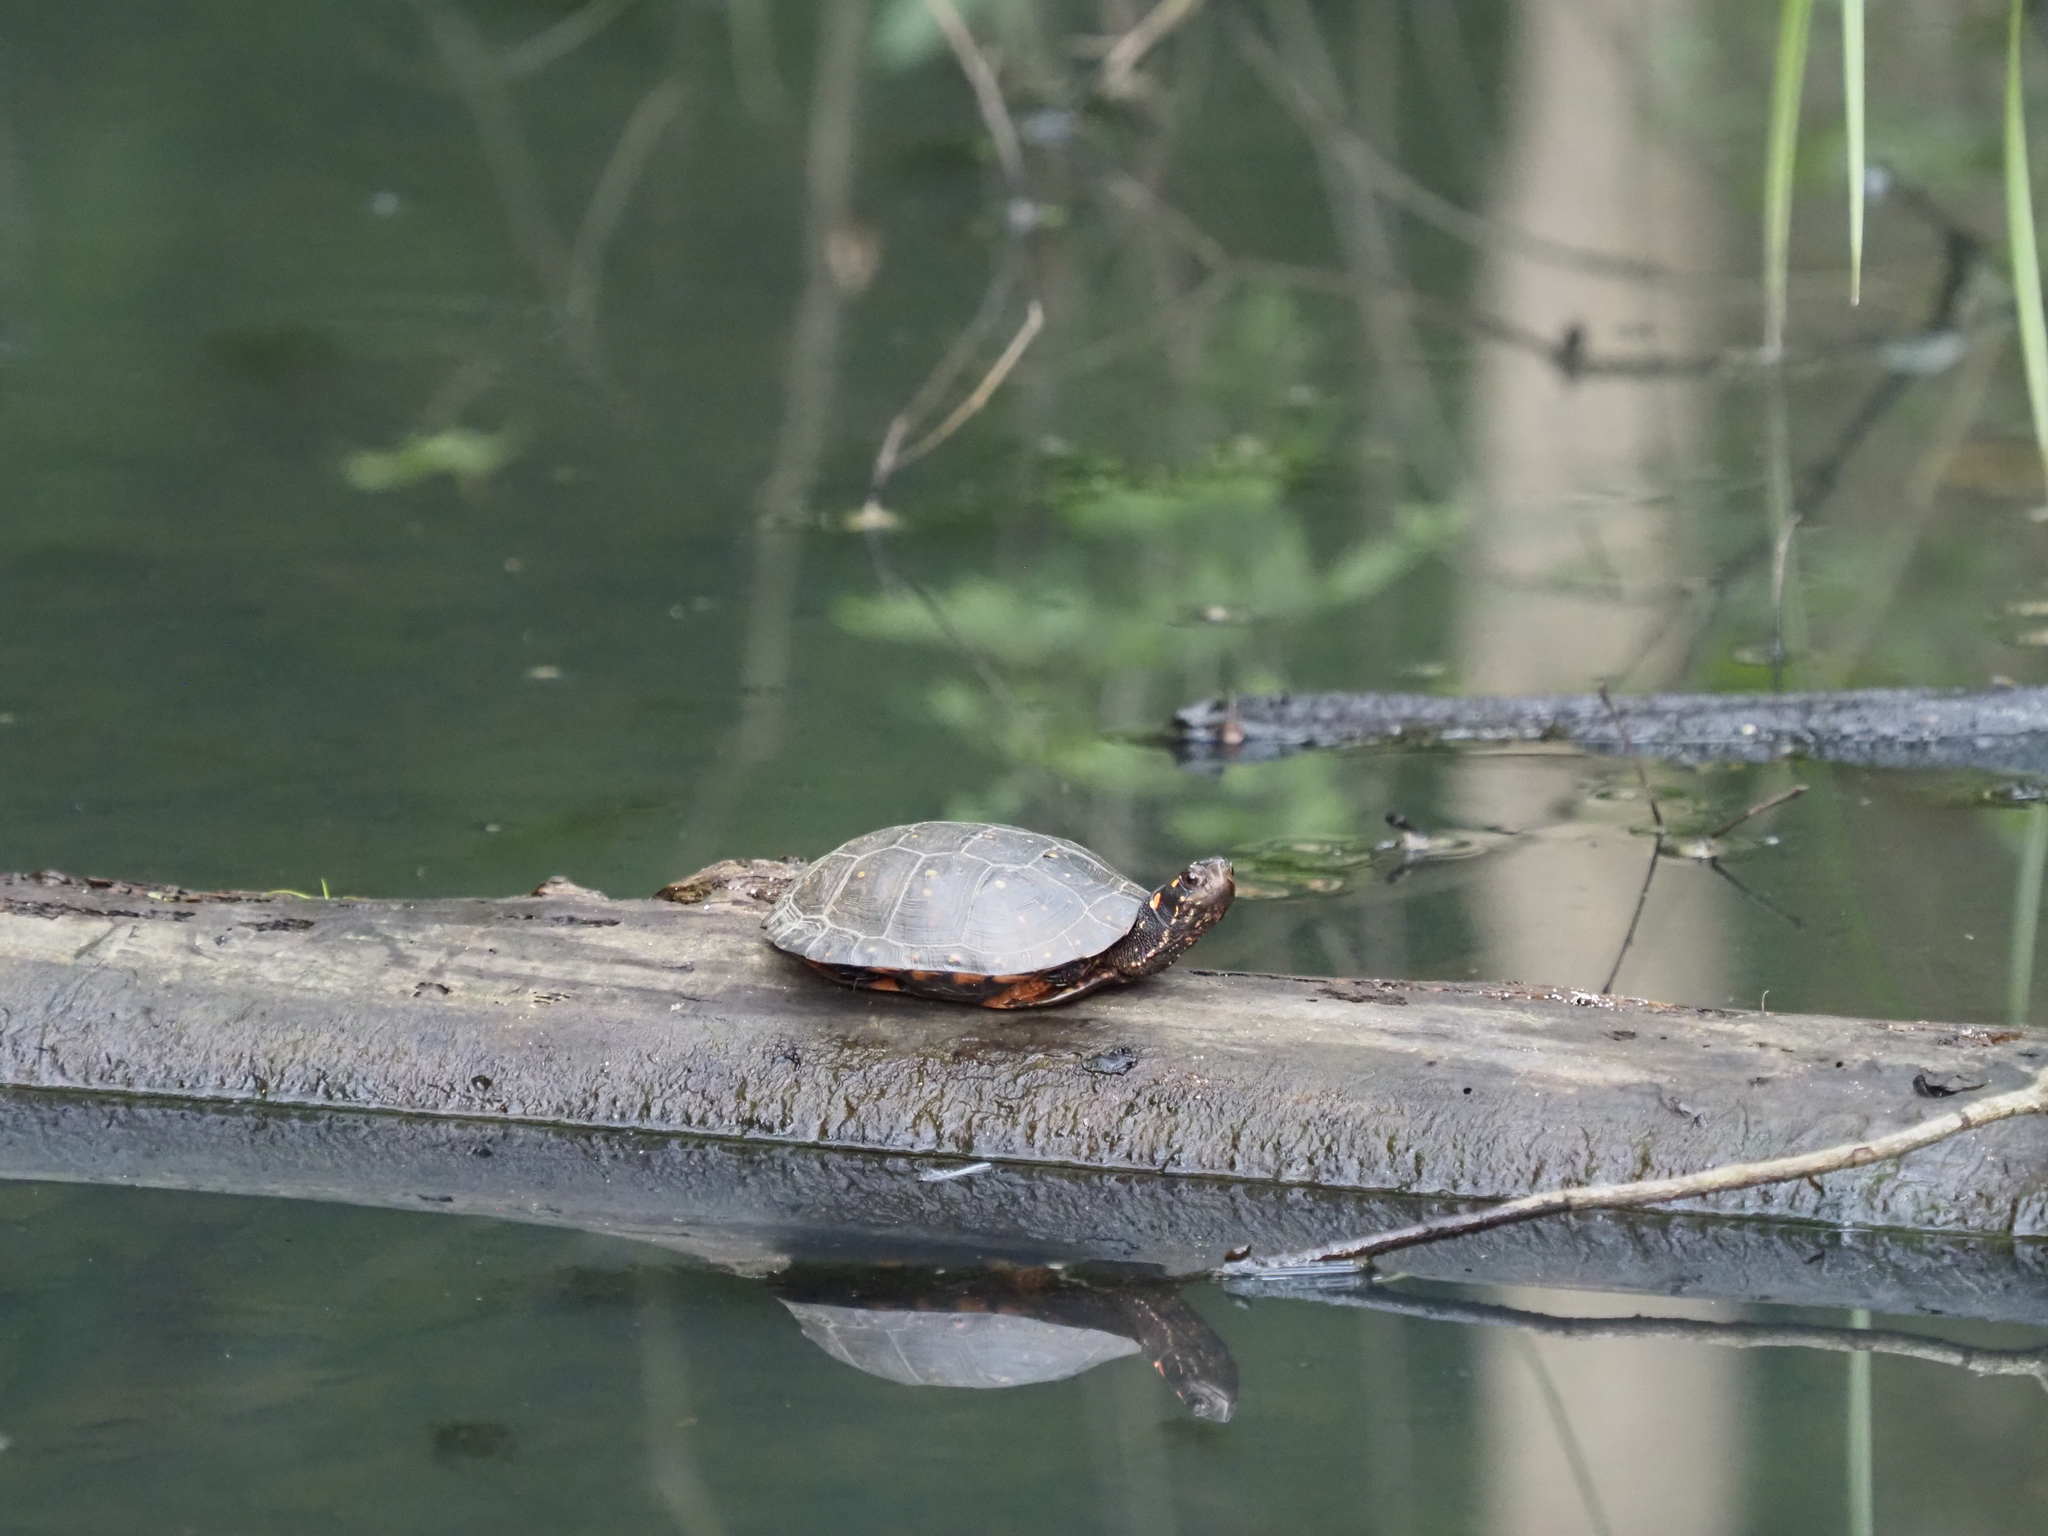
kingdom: Animalia
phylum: Chordata
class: Testudines
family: Emydidae
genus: Clemmys
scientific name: Clemmys guttata
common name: Spotted turtle
